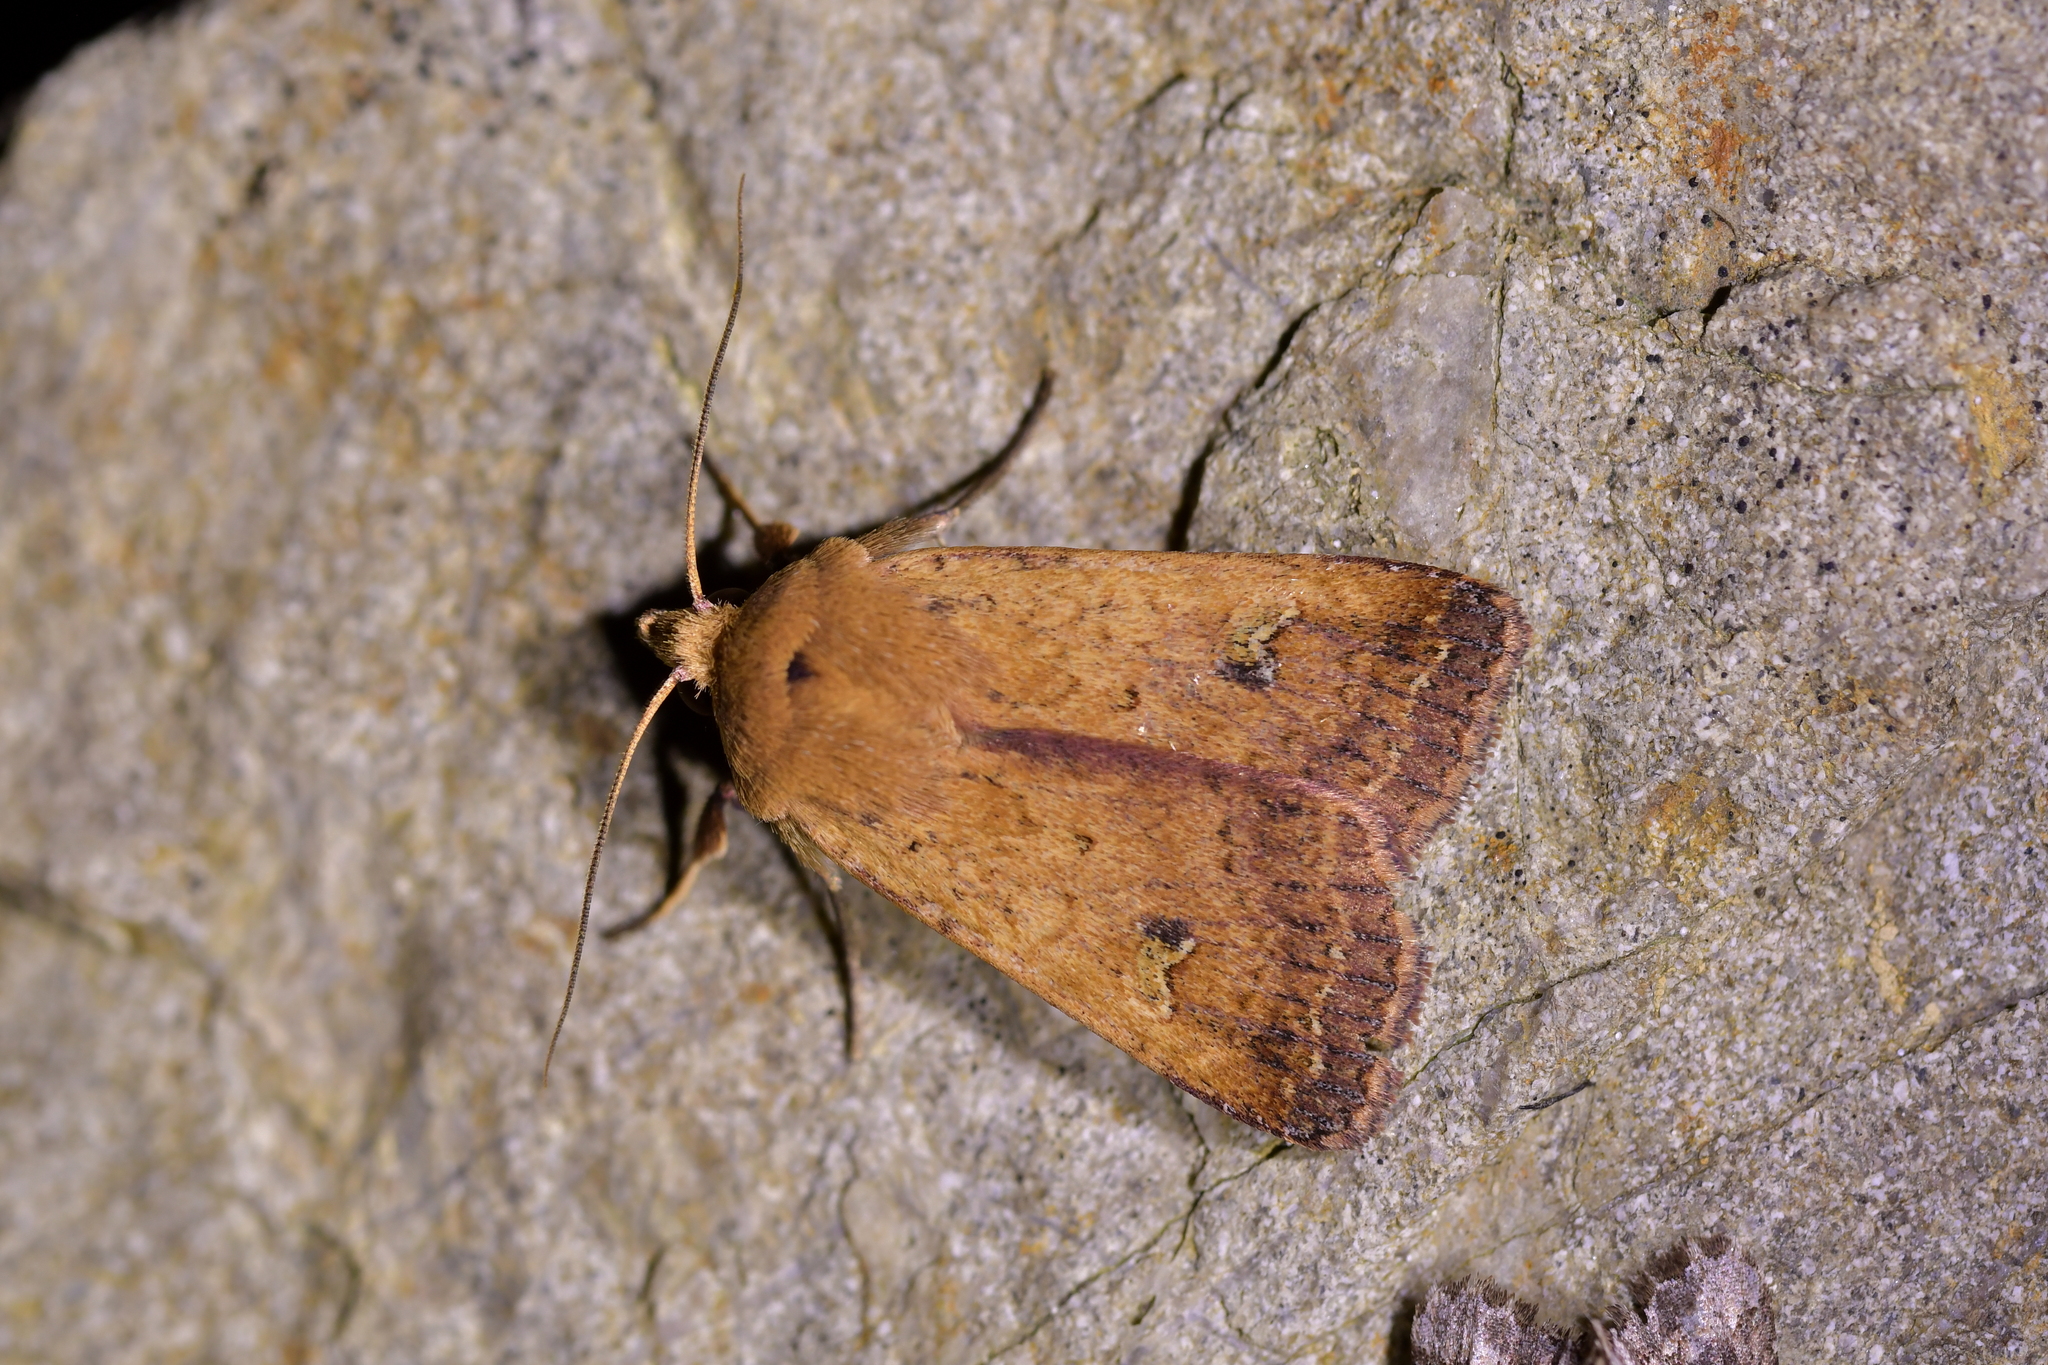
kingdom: Animalia
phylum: Arthropoda
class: Insecta
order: Lepidoptera
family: Noctuidae
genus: Diarsia
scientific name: Diarsia intermixta
